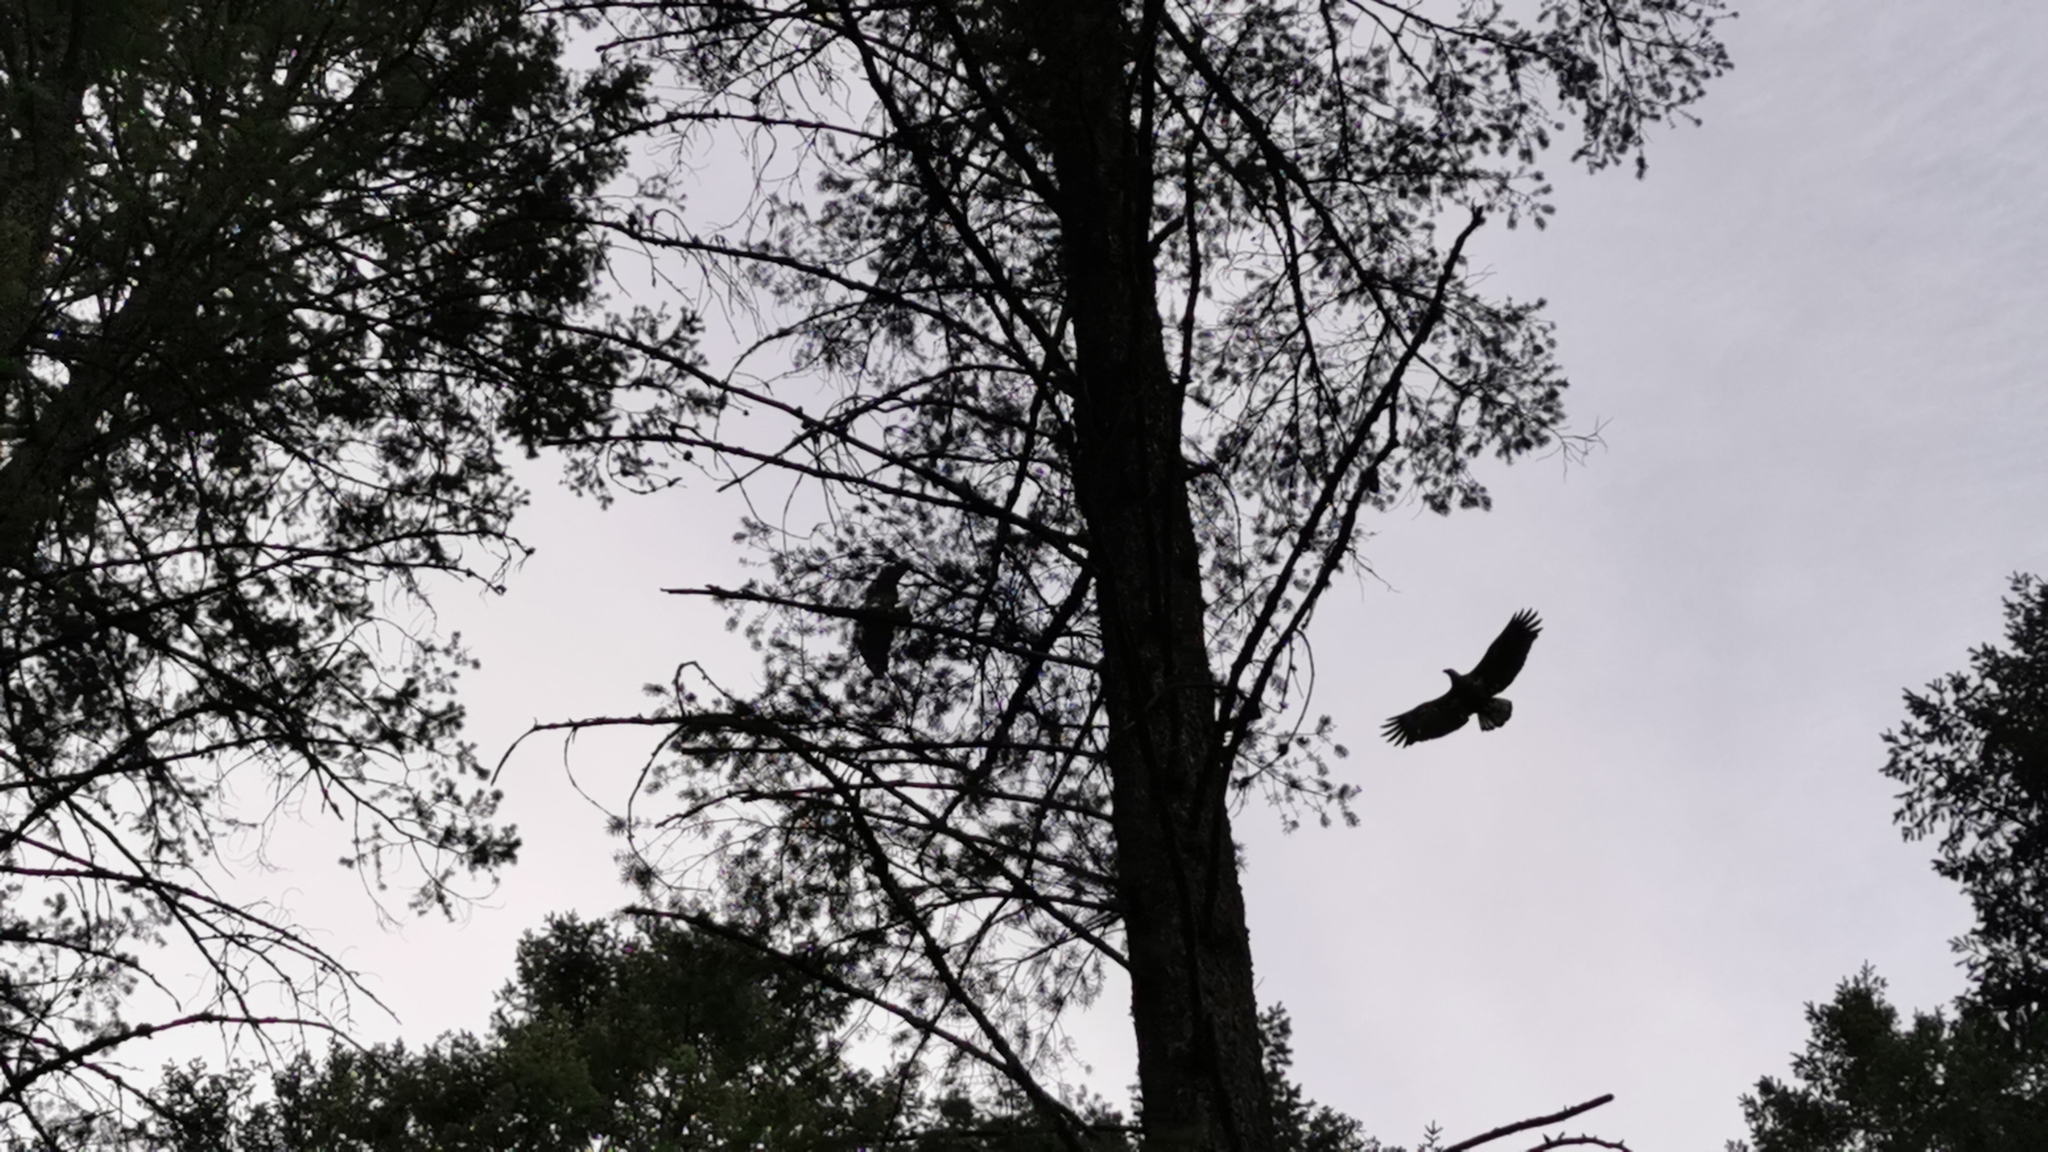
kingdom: Animalia
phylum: Chordata
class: Aves
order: Accipitriformes
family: Accipitridae
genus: Haliaeetus
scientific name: Haliaeetus leucocephalus
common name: Bald eagle
